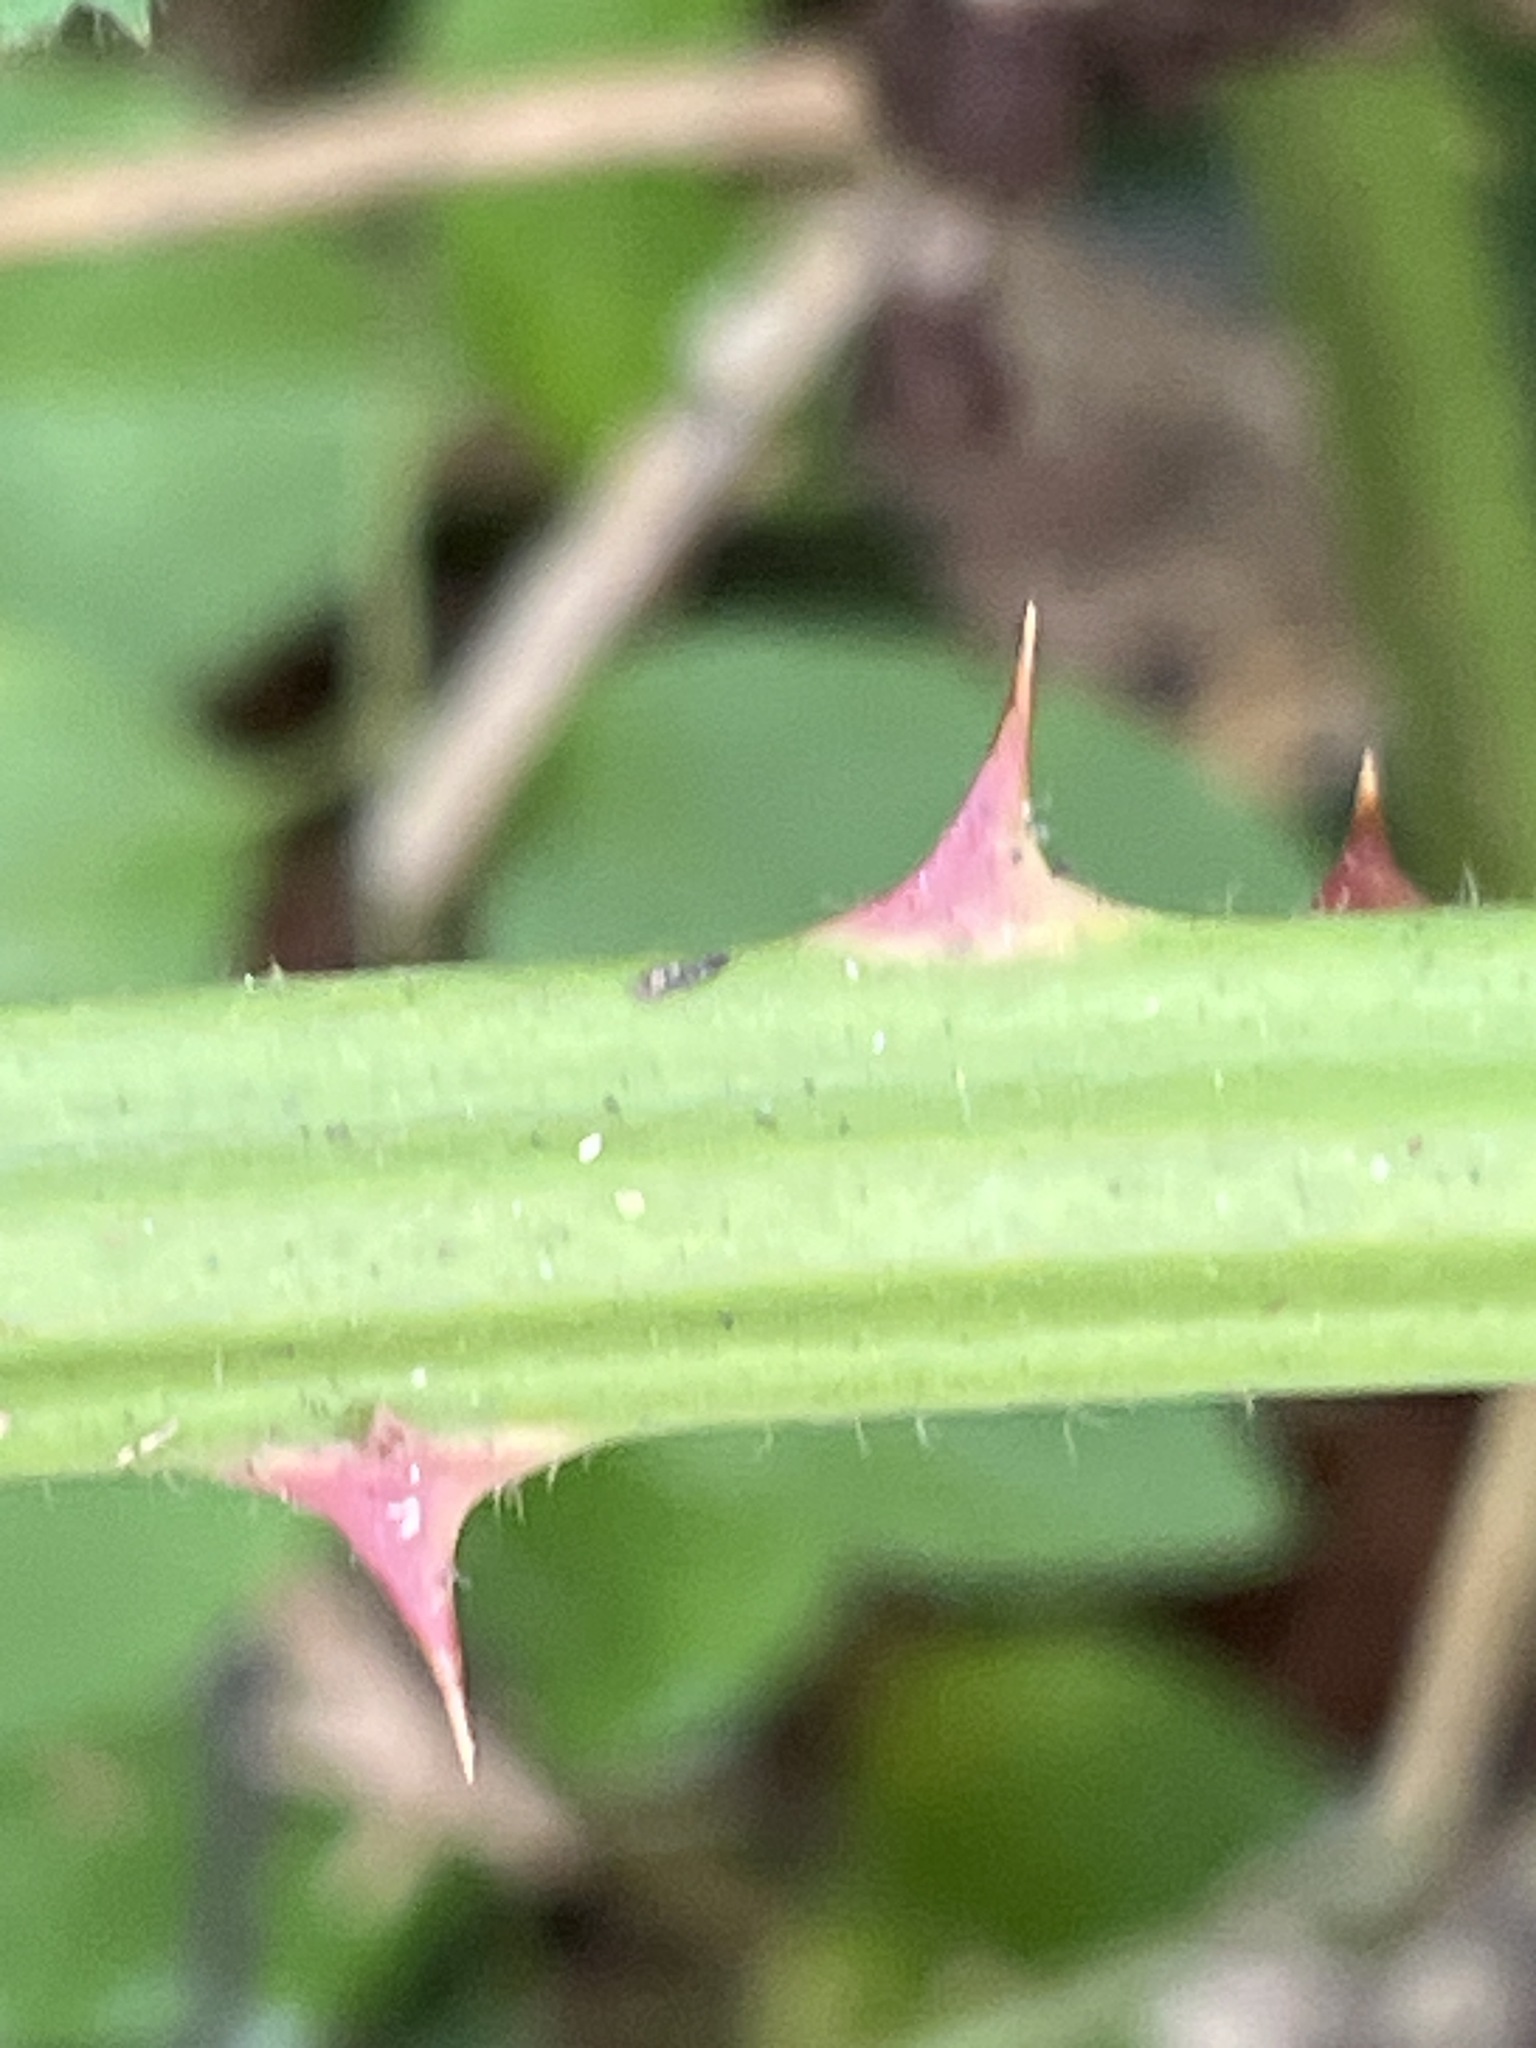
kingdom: Plantae
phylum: Tracheophyta
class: Magnoliopsida
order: Rosales
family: Rosaceae
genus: Rubus
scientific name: Rubus armeniacus
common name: Himalayan blackberry
